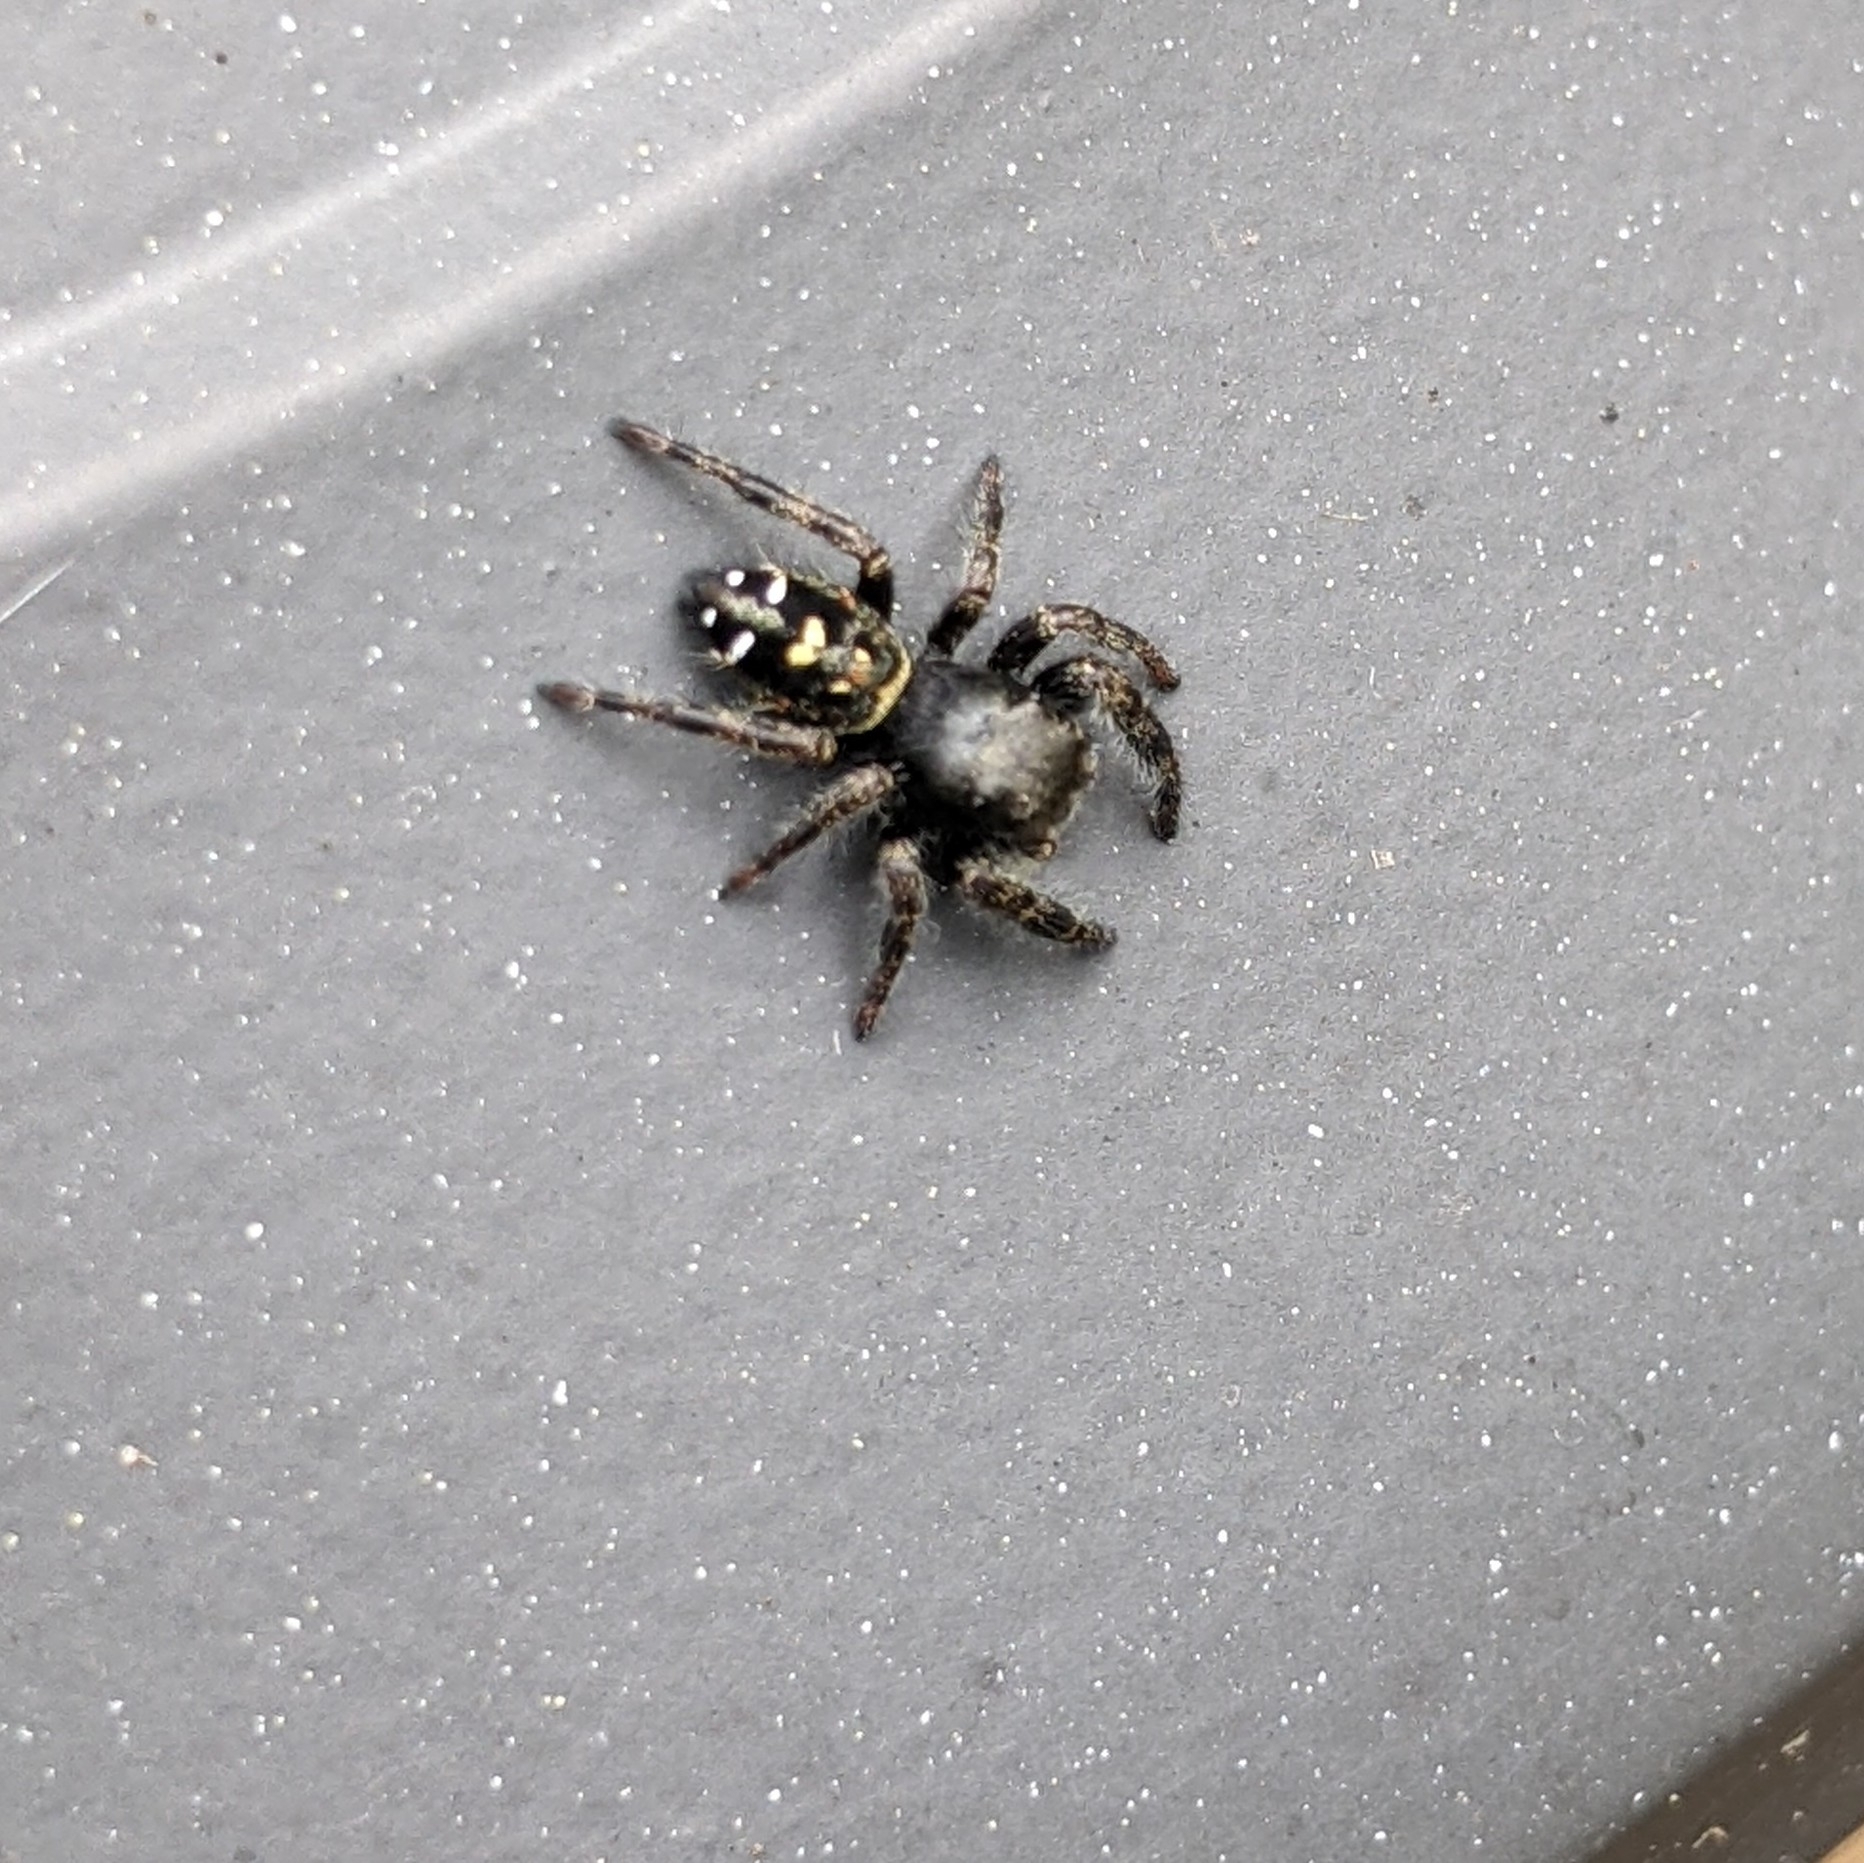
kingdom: Animalia
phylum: Arthropoda
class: Arachnida
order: Araneae
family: Salticidae
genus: Phidippus
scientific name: Phidippus johnsoni
